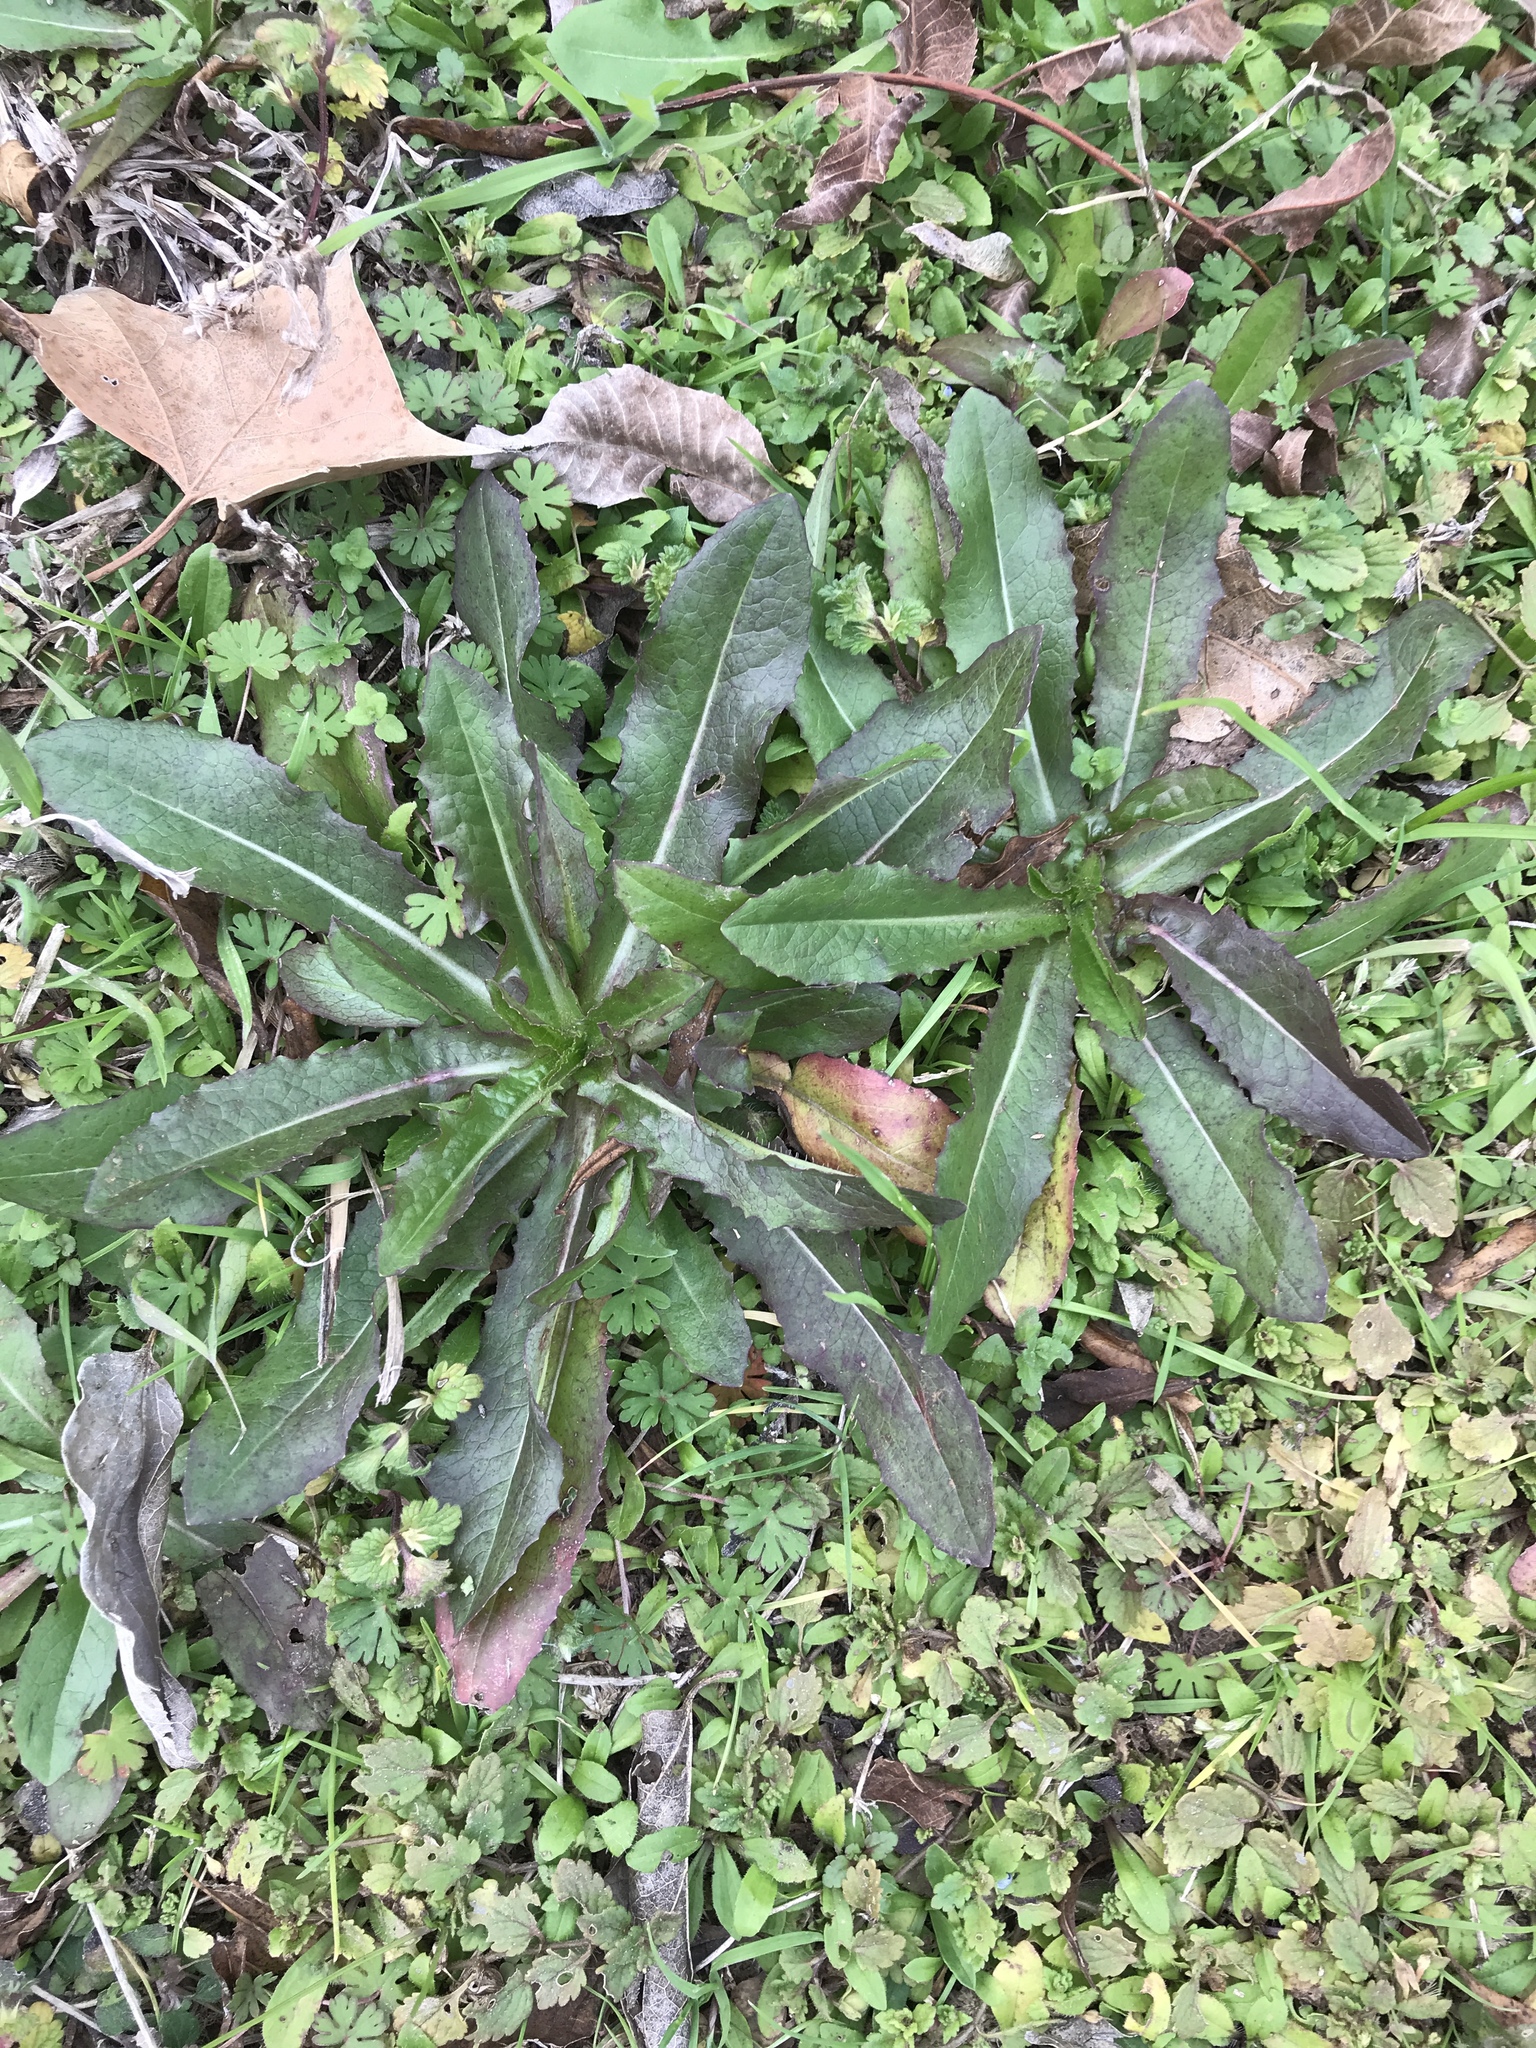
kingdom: Plantae
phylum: Tracheophyta
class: Magnoliopsida
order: Asterales
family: Asteraceae
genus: Lactuca
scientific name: Lactuca serriola
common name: Prickly lettuce
